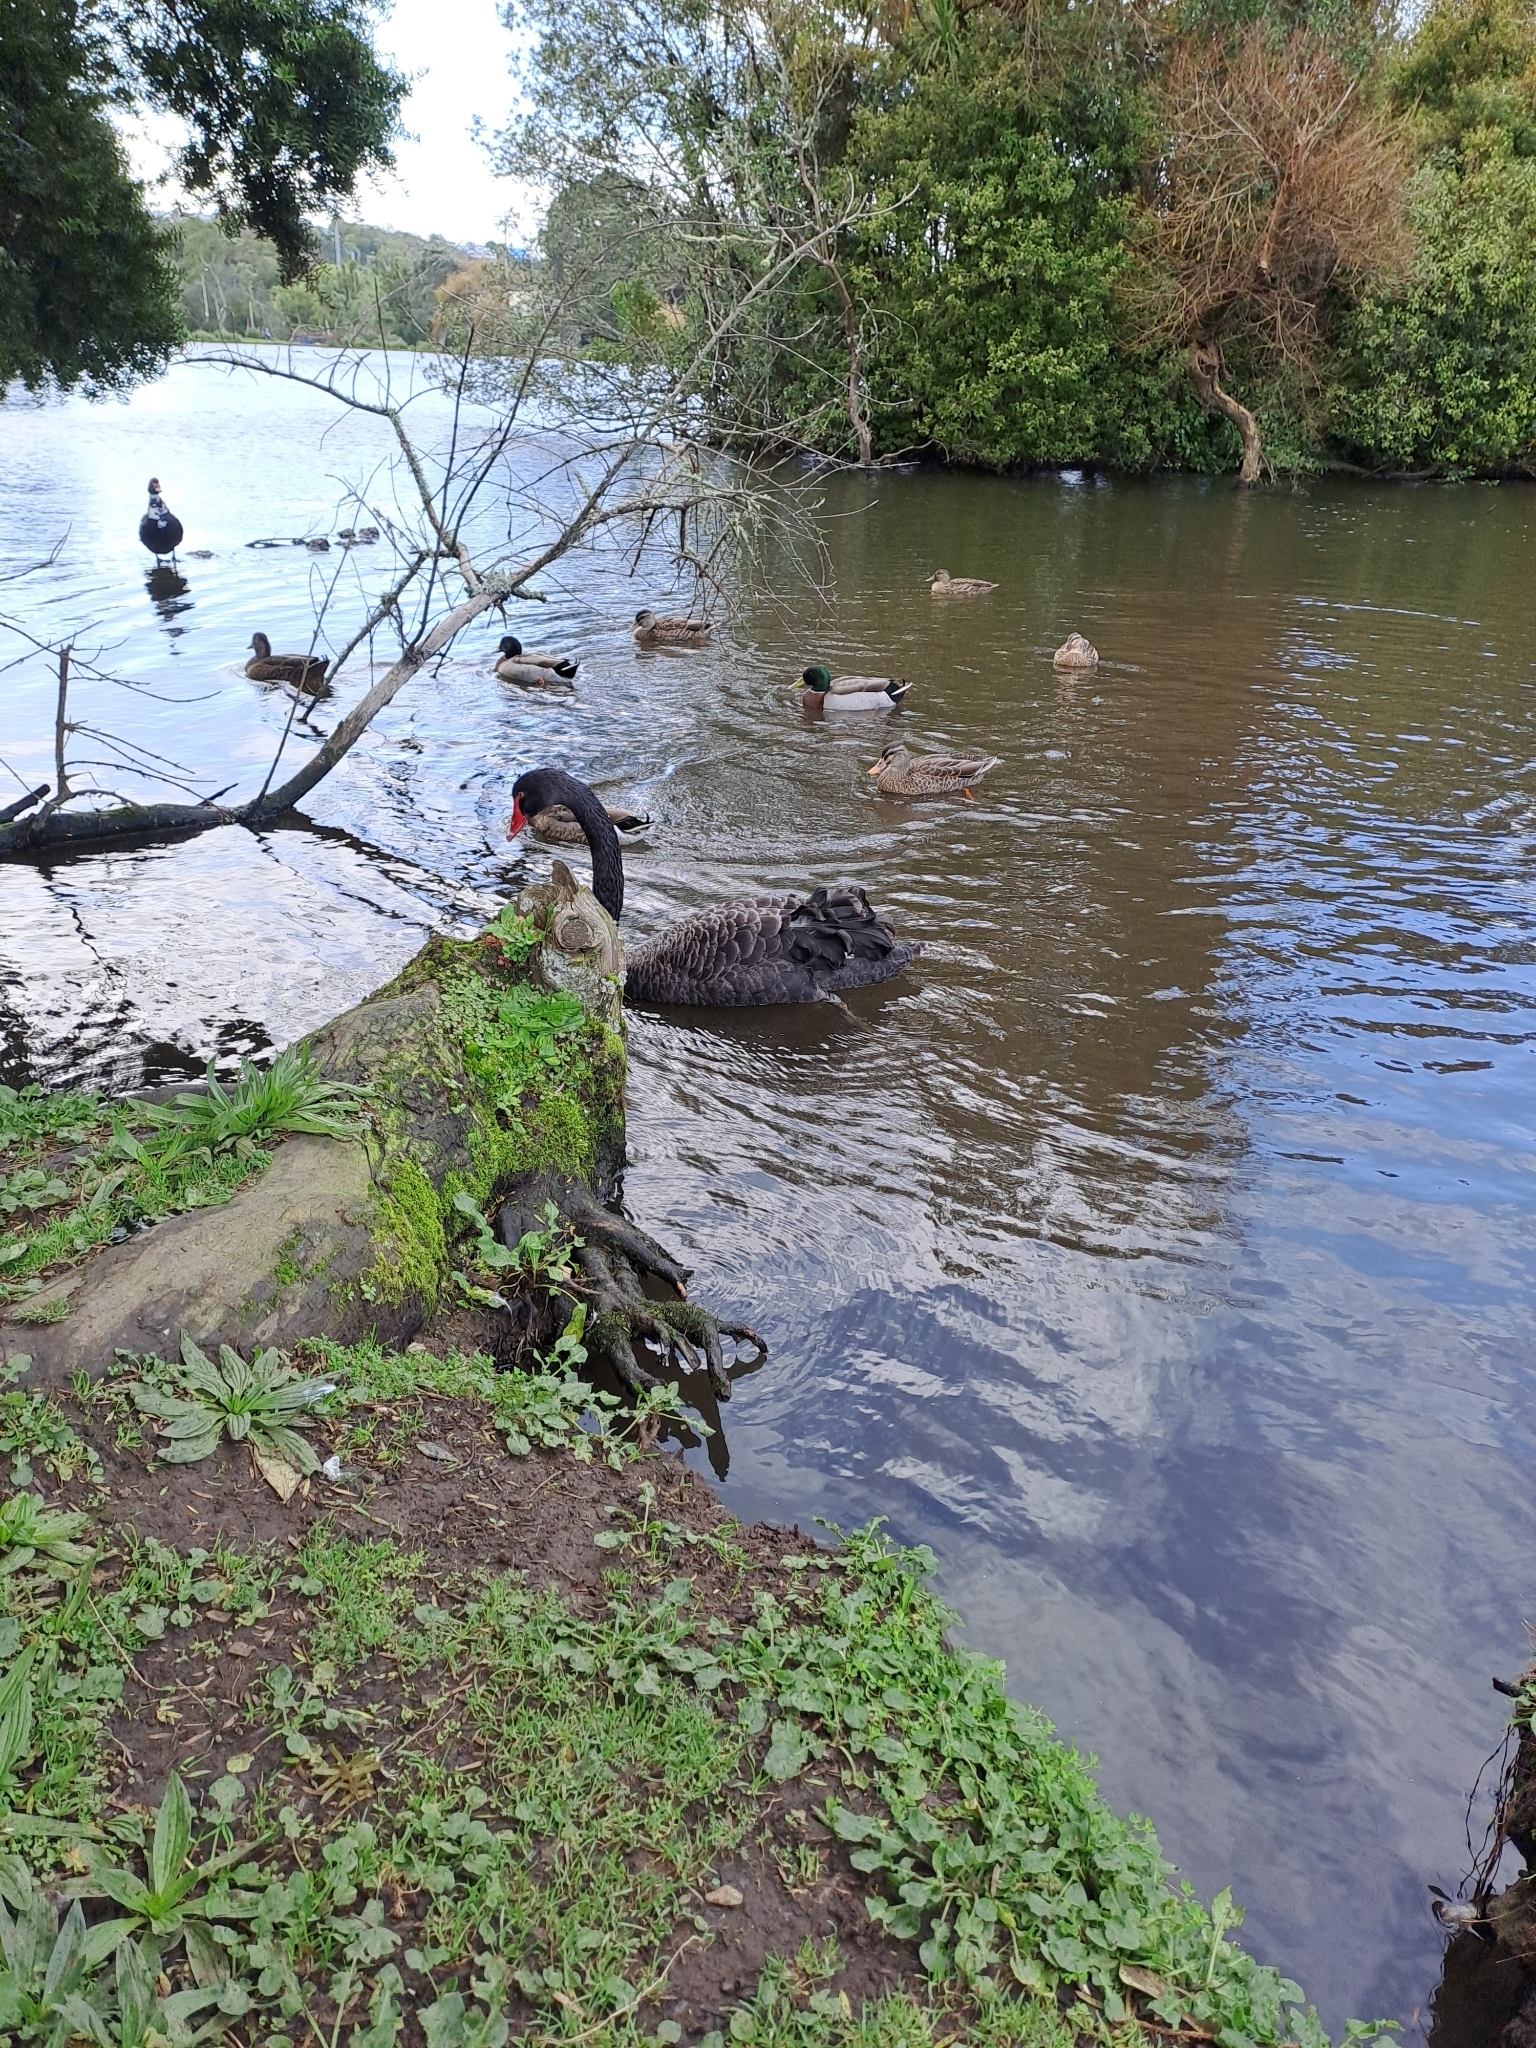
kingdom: Animalia
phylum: Chordata
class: Aves
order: Anseriformes
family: Anatidae
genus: Cygnus
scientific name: Cygnus atratus
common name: Black swan
